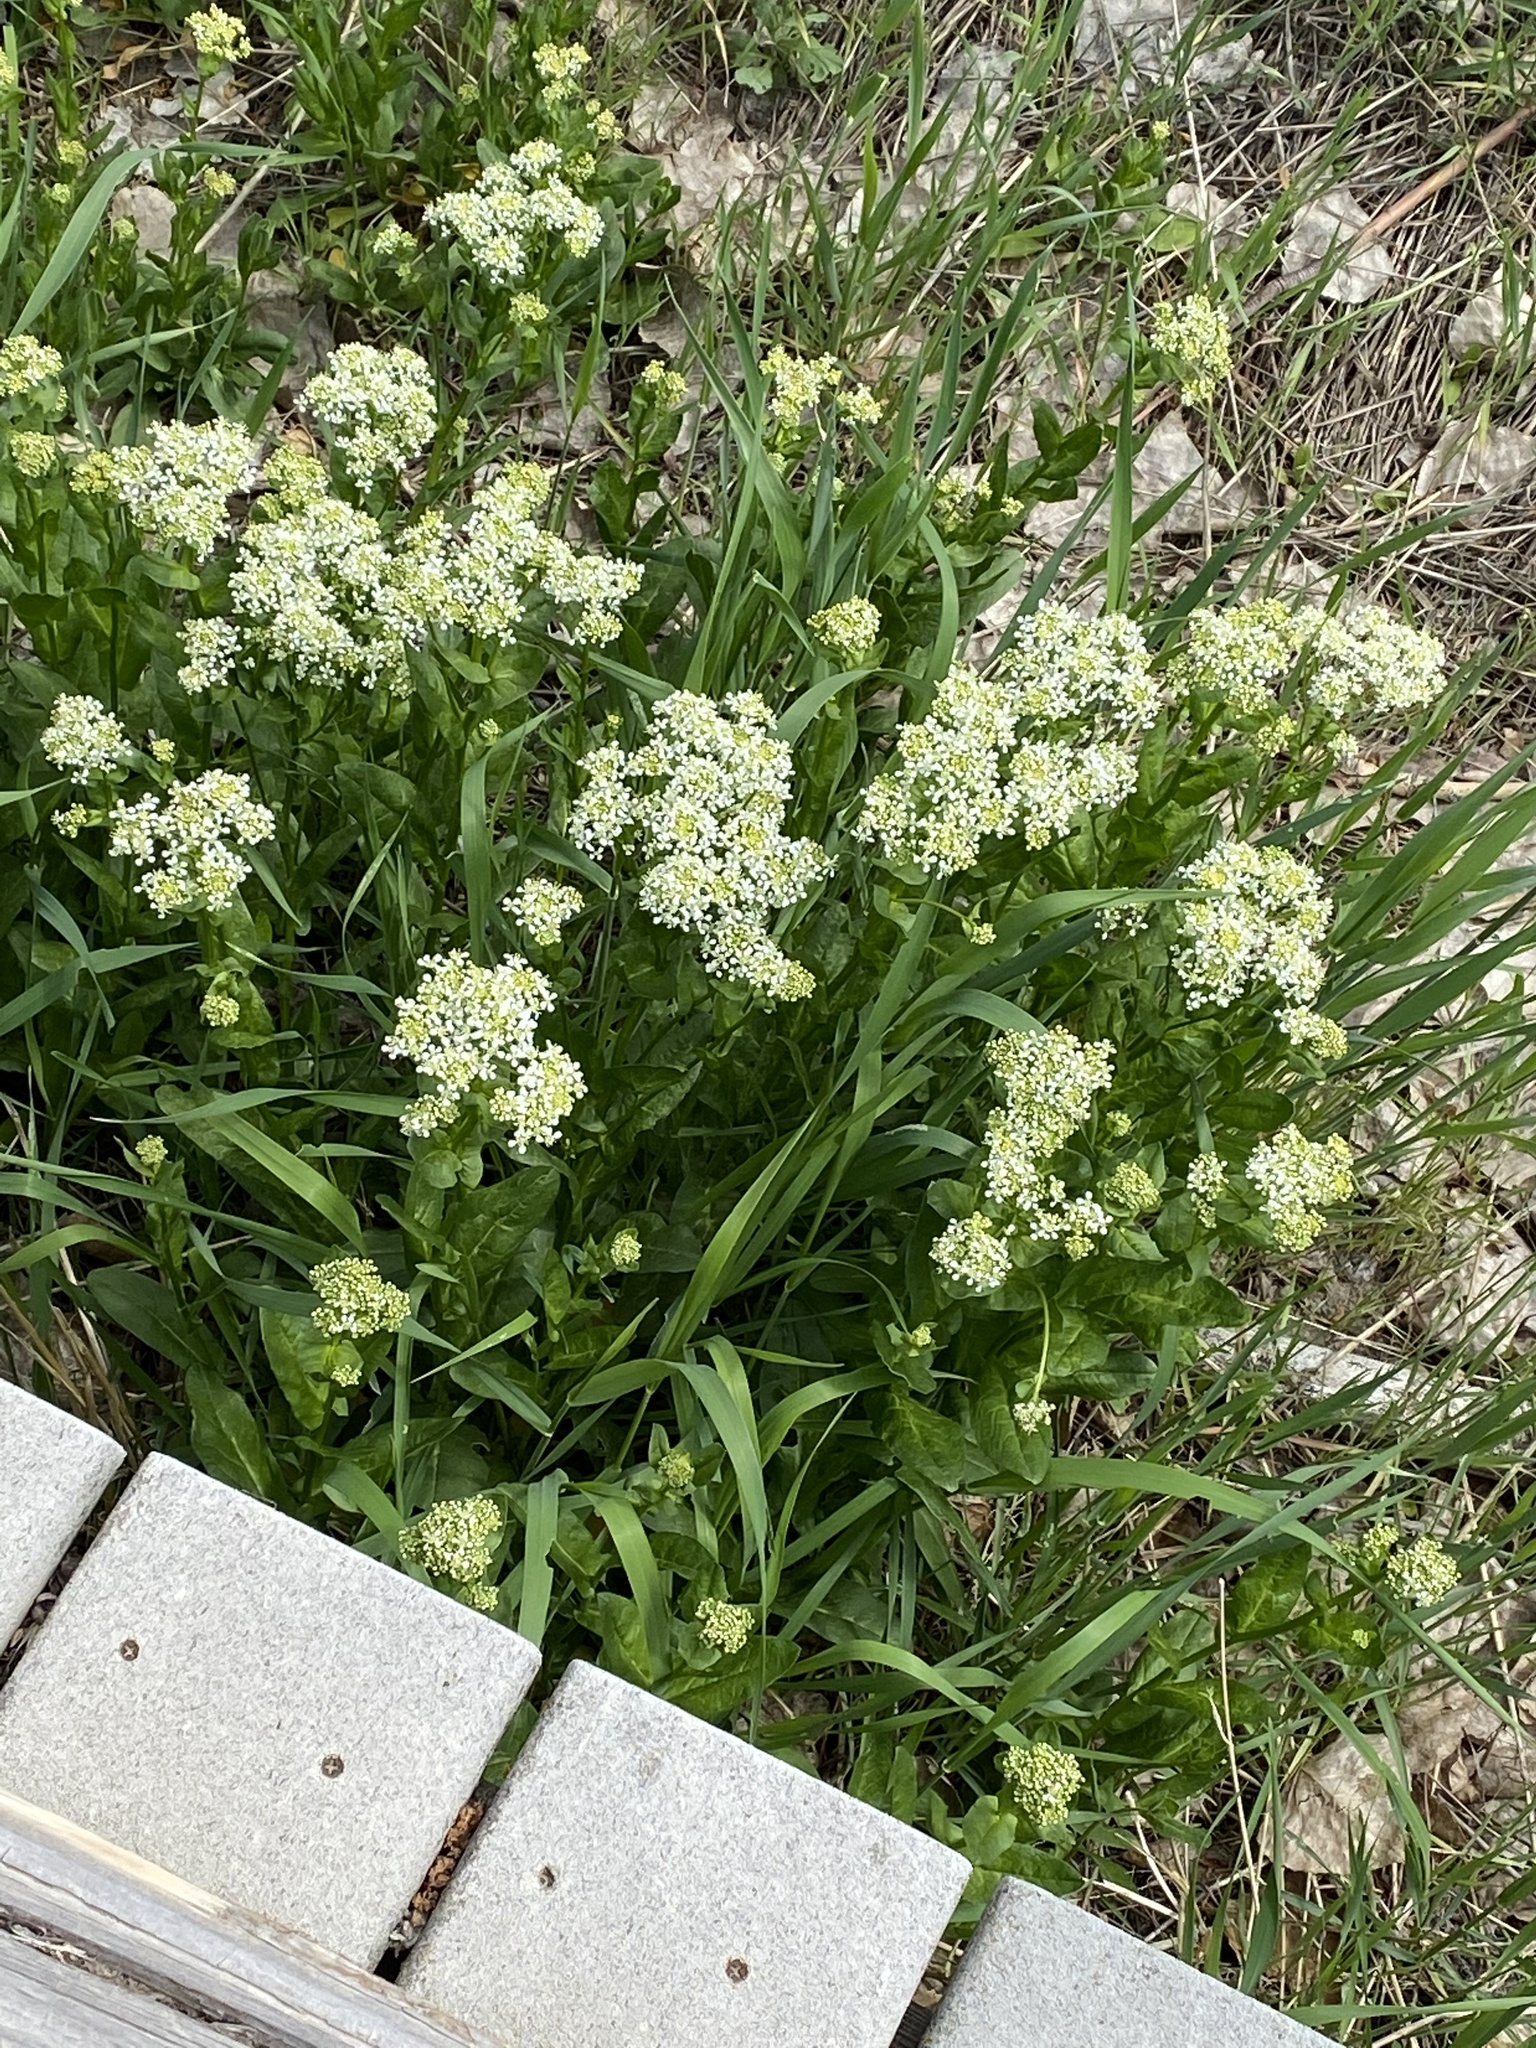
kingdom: Plantae
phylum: Tracheophyta
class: Magnoliopsida
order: Brassicales
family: Brassicaceae
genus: Lepidium
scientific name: Lepidium draba
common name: Hoary cress
